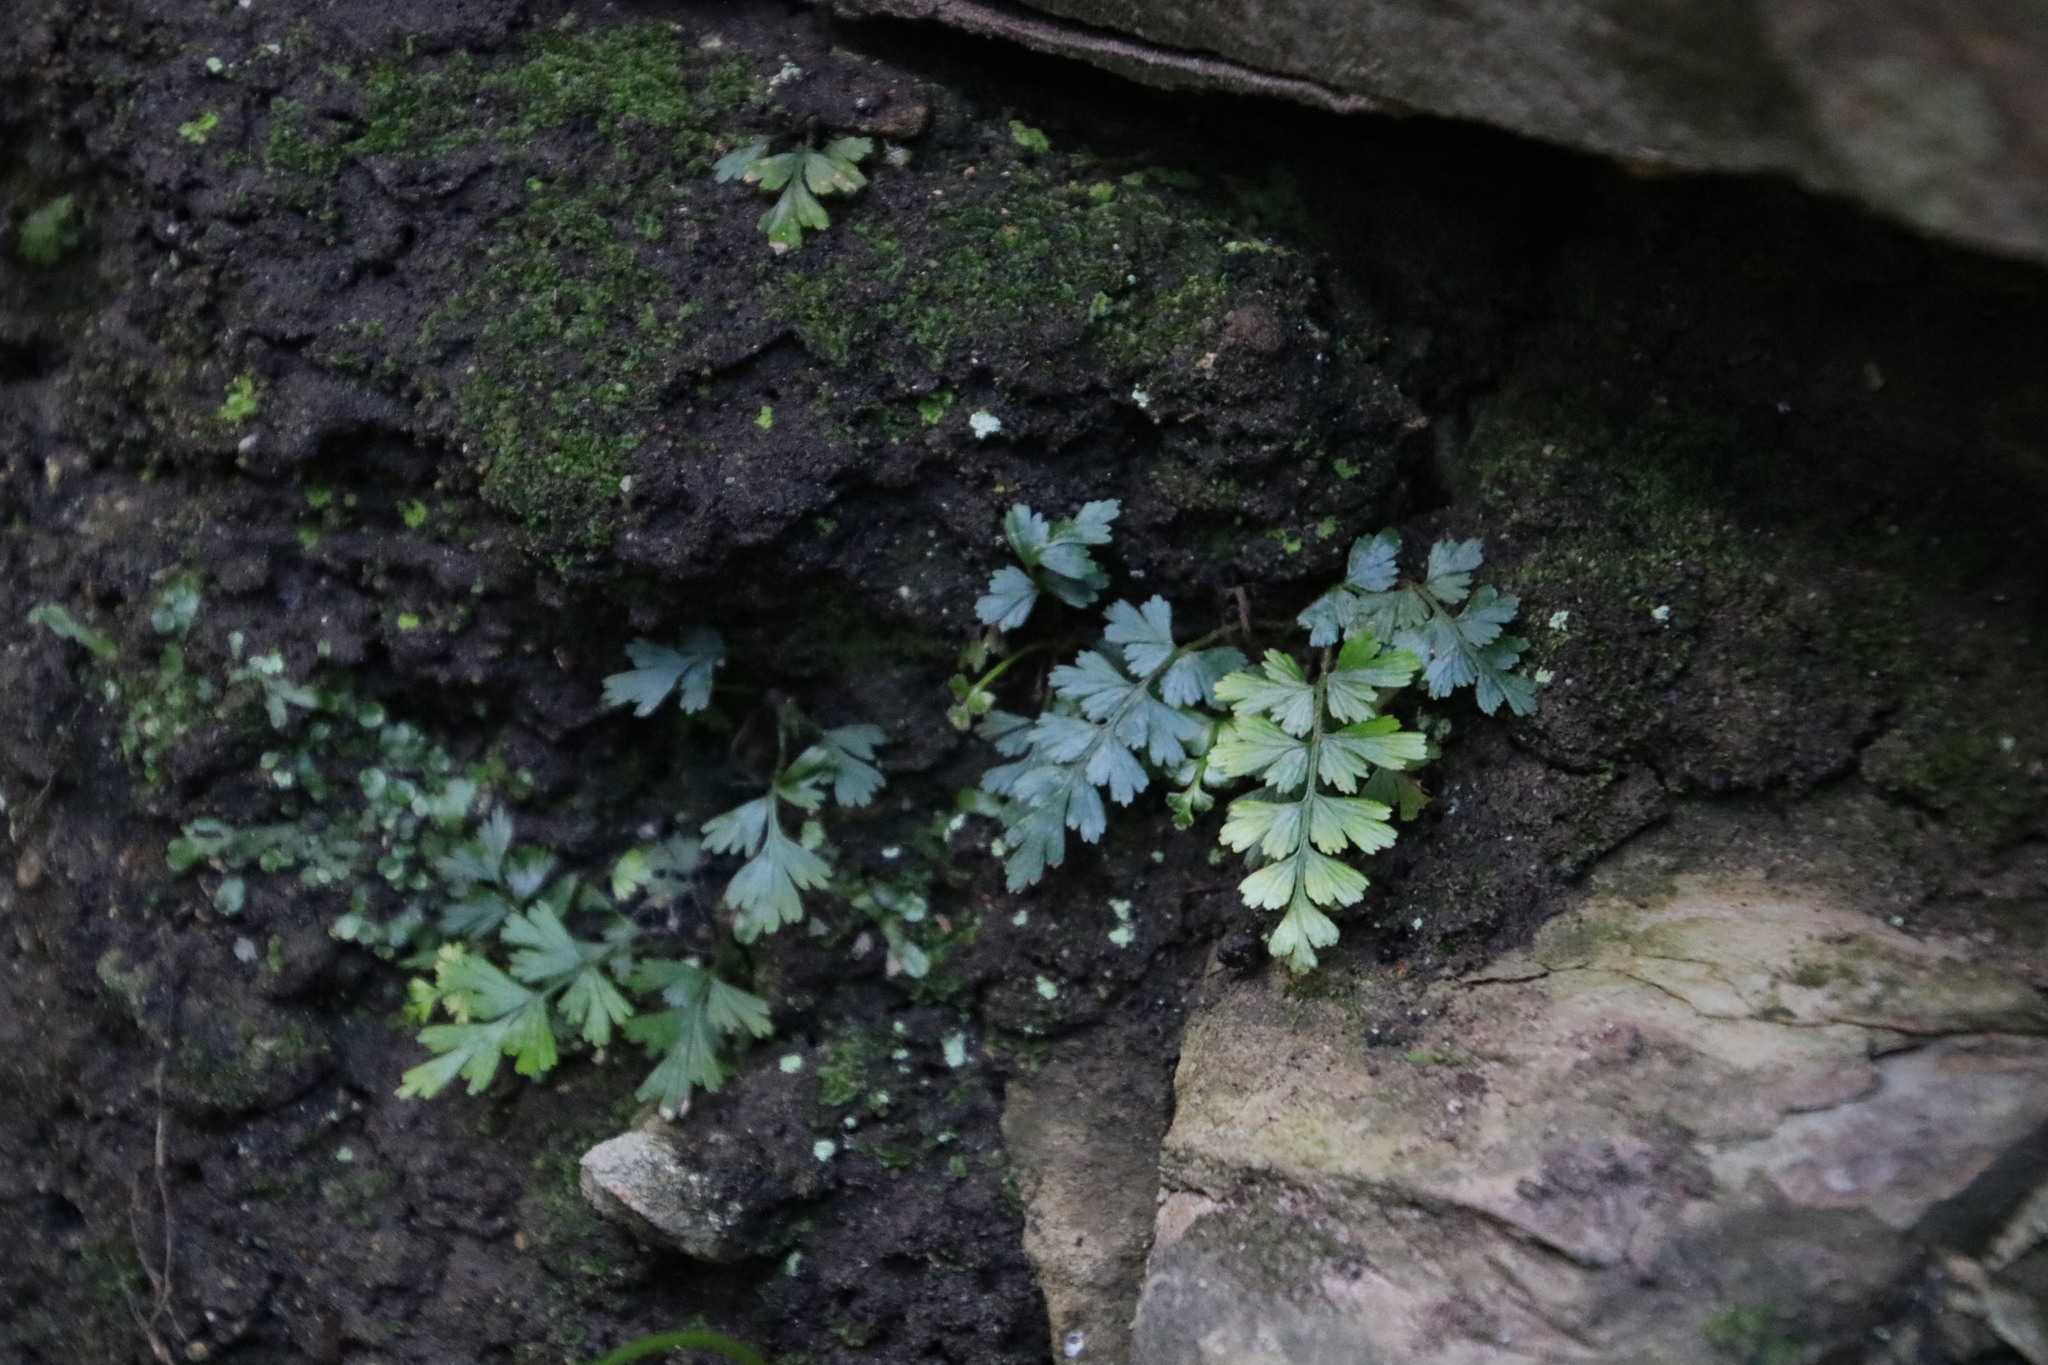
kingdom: Plantae
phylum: Tracheophyta
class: Polypodiopsida
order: Polypodiales
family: Aspleniaceae
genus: Asplenium
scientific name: Asplenium aethiopicum
